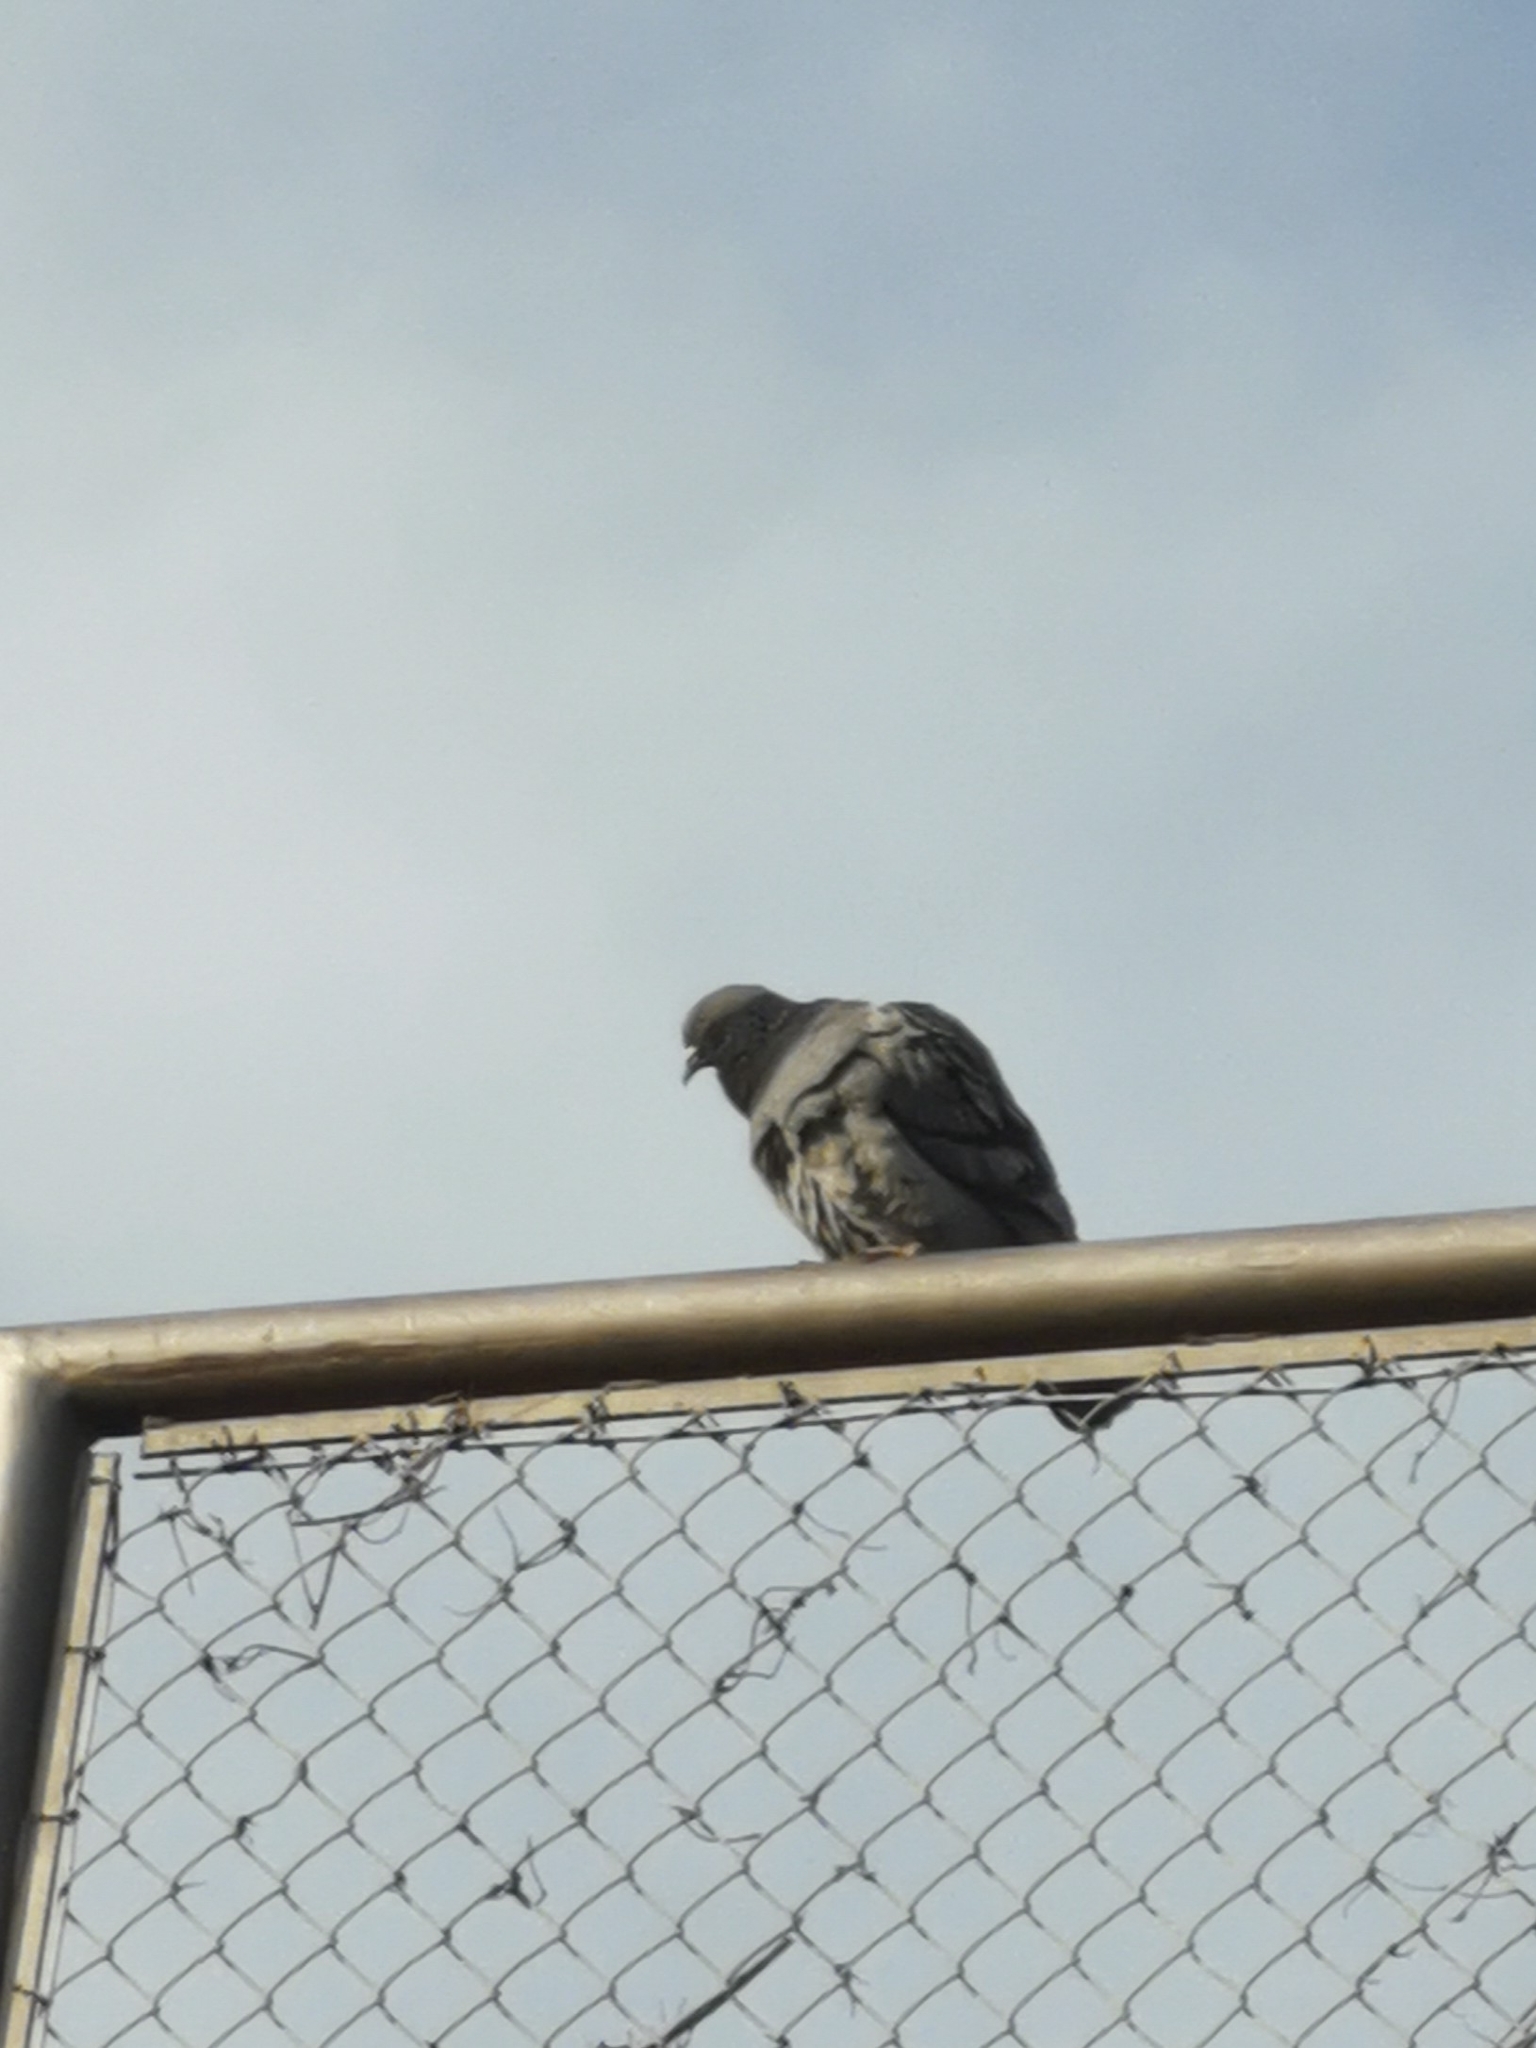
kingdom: Animalia
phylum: Chordata
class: Aves
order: Columbiformes
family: Columbidae
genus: Columba
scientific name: Columba livia
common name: Rock pigeon
